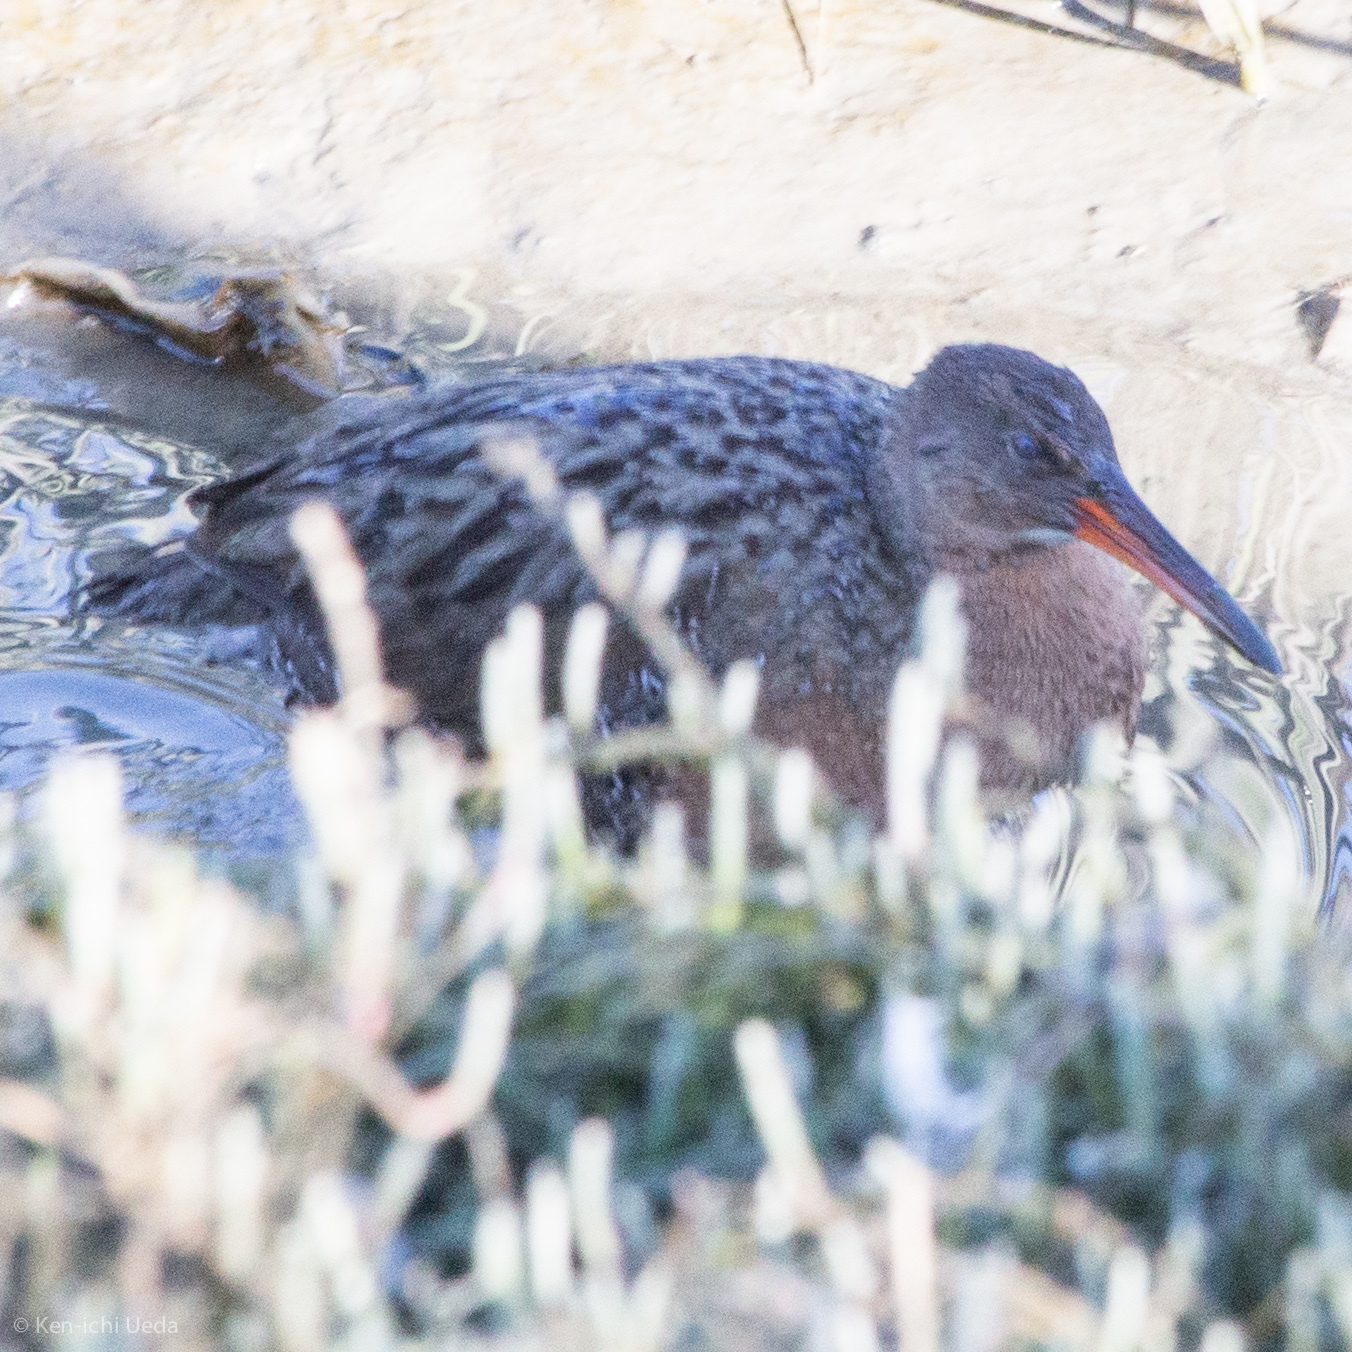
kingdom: Animalia
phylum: Chordata
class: Aves
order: Gruiformes
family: Rallidae
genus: Rallus
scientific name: Rallus obsoletus
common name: Ridgway's rail
